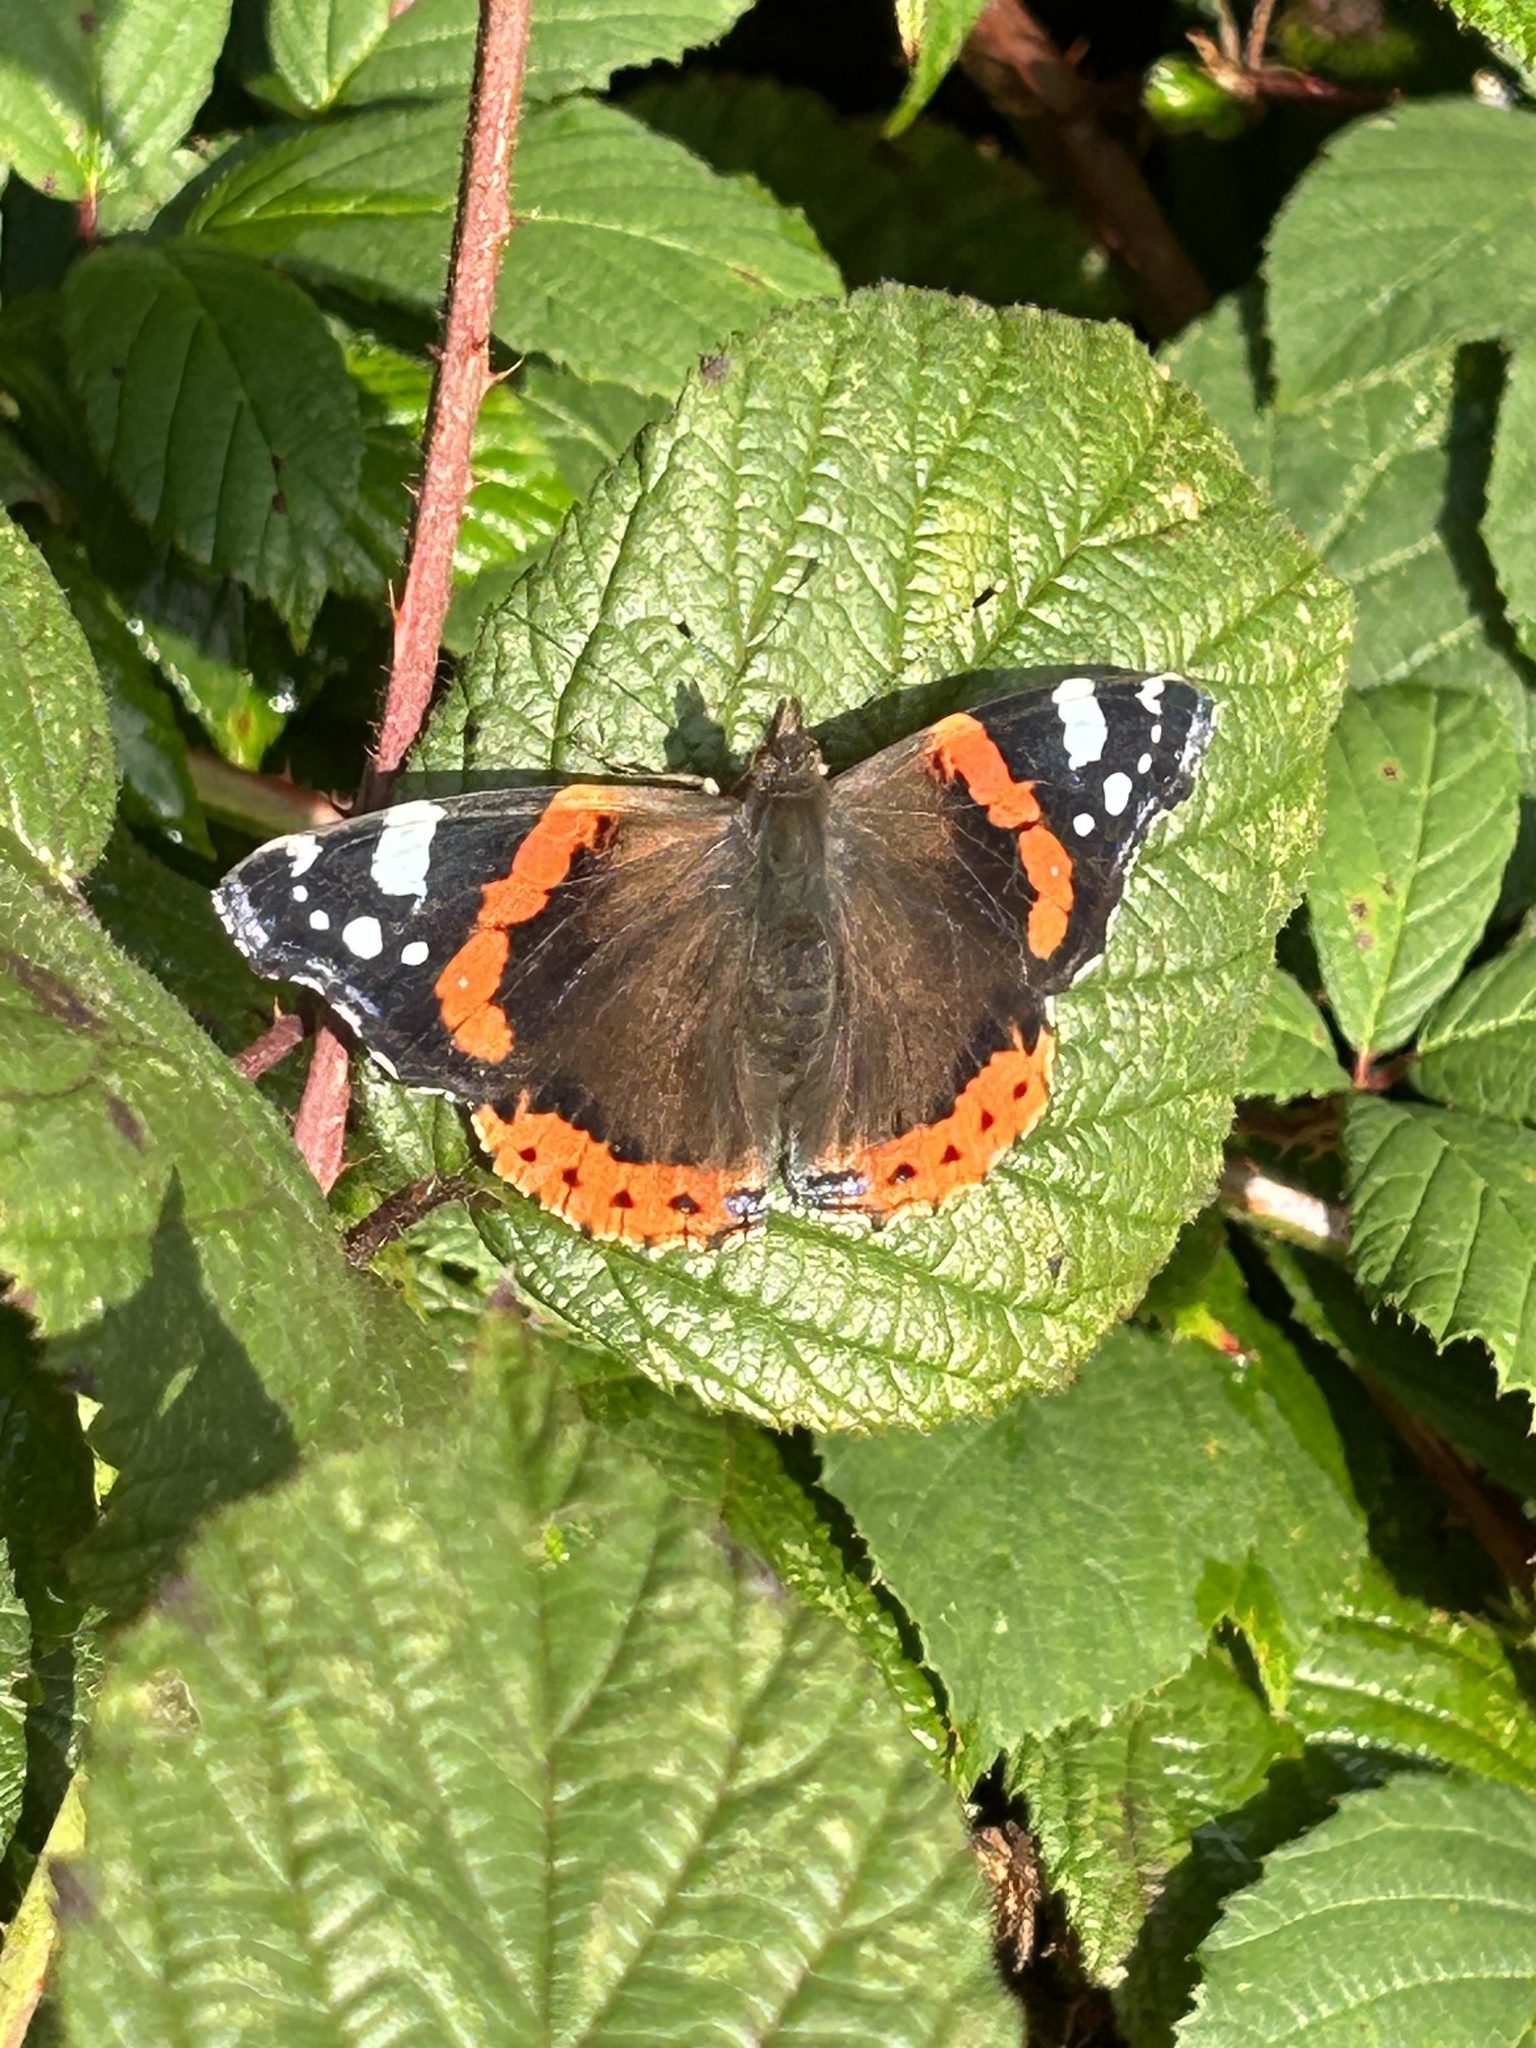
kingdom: Animalia
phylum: Arthropoda
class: Insecta
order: Lepidoptera
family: Nymphalidae
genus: Vanessa
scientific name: Vanessa atalanta
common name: Red admiral
